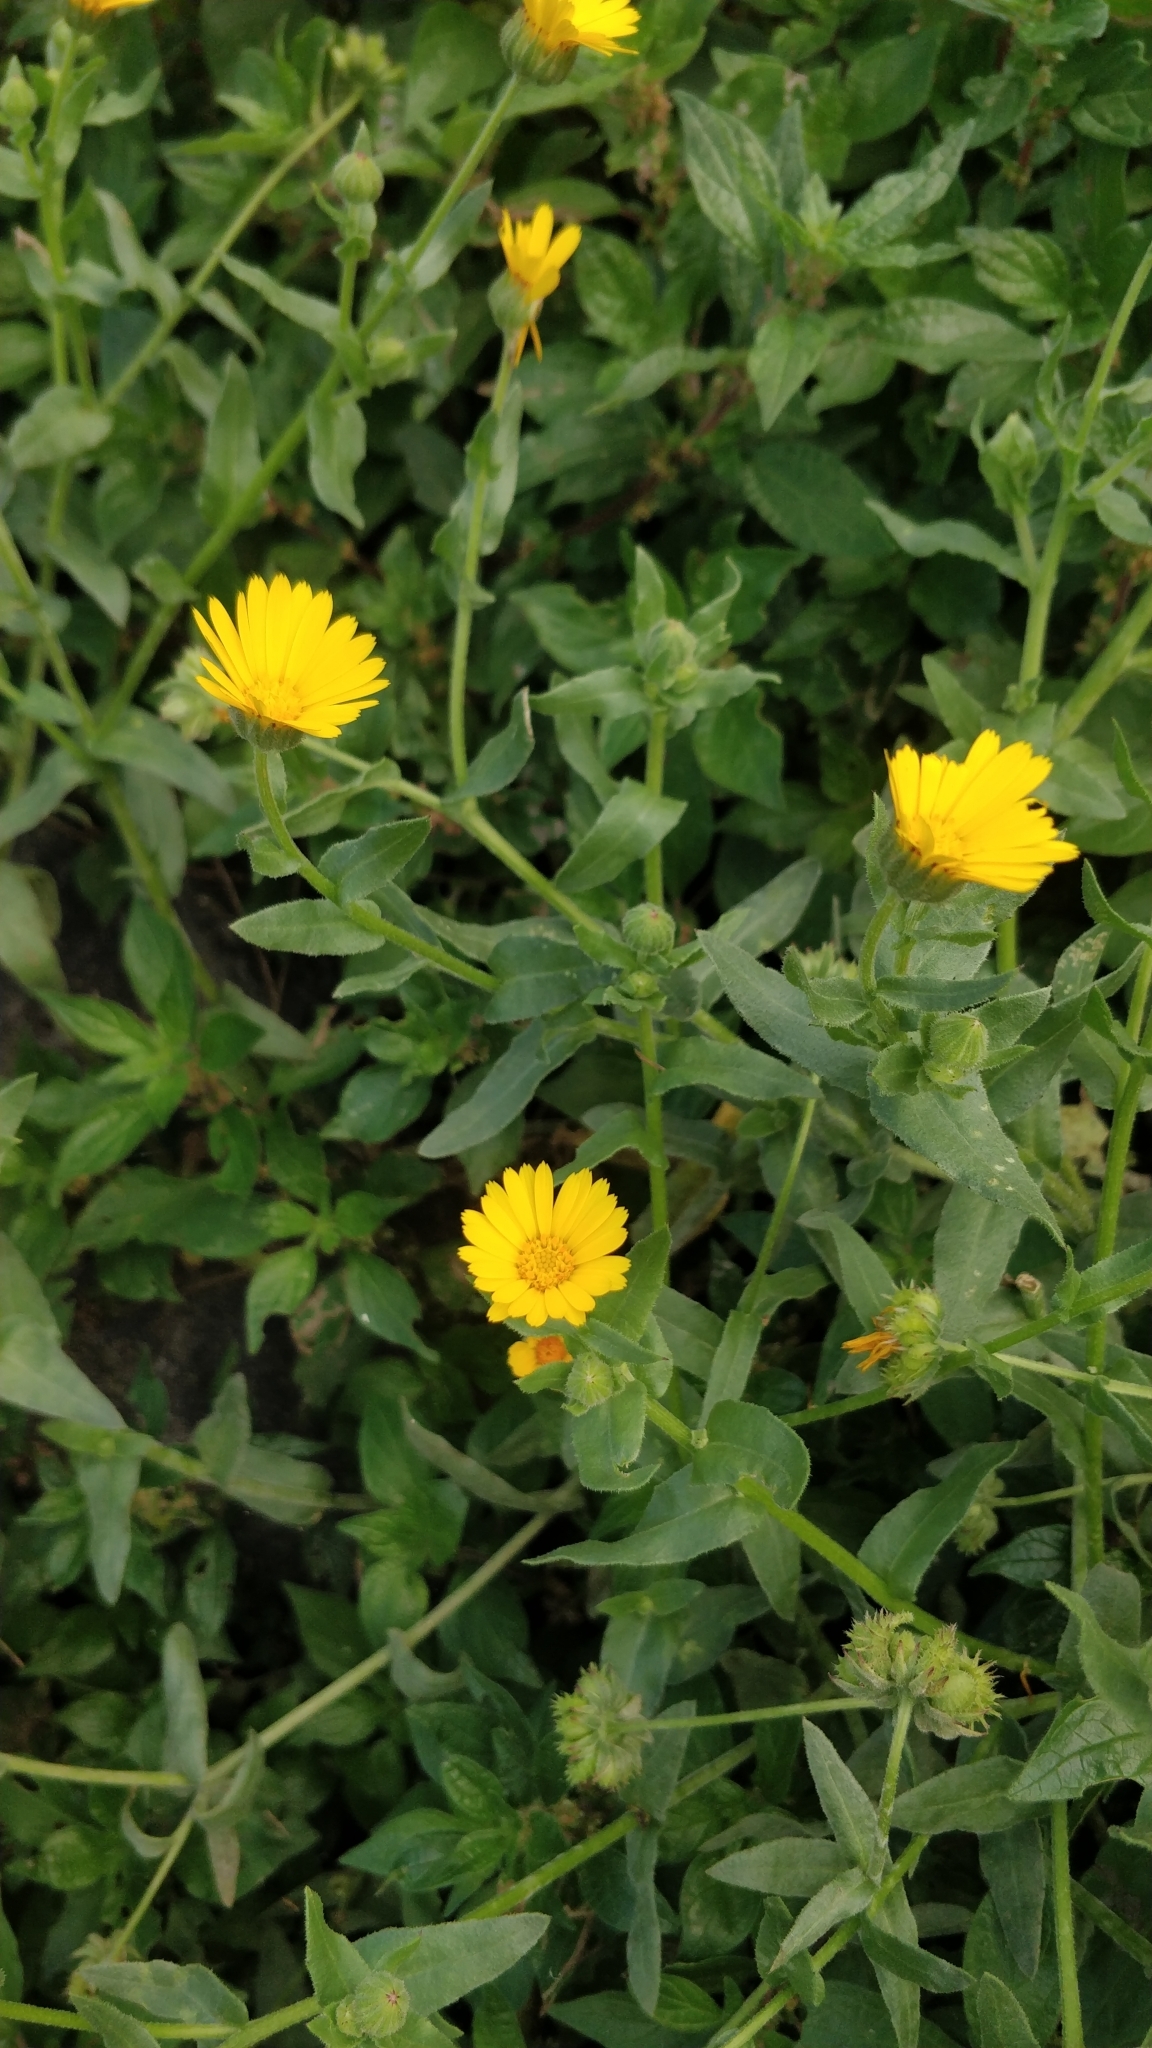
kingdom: Plantae
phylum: Tracheophyta
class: Magnoliopsida
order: Asterales
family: Asteraceae
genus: Calendula
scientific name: Calendula arvensis
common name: Field marigold
